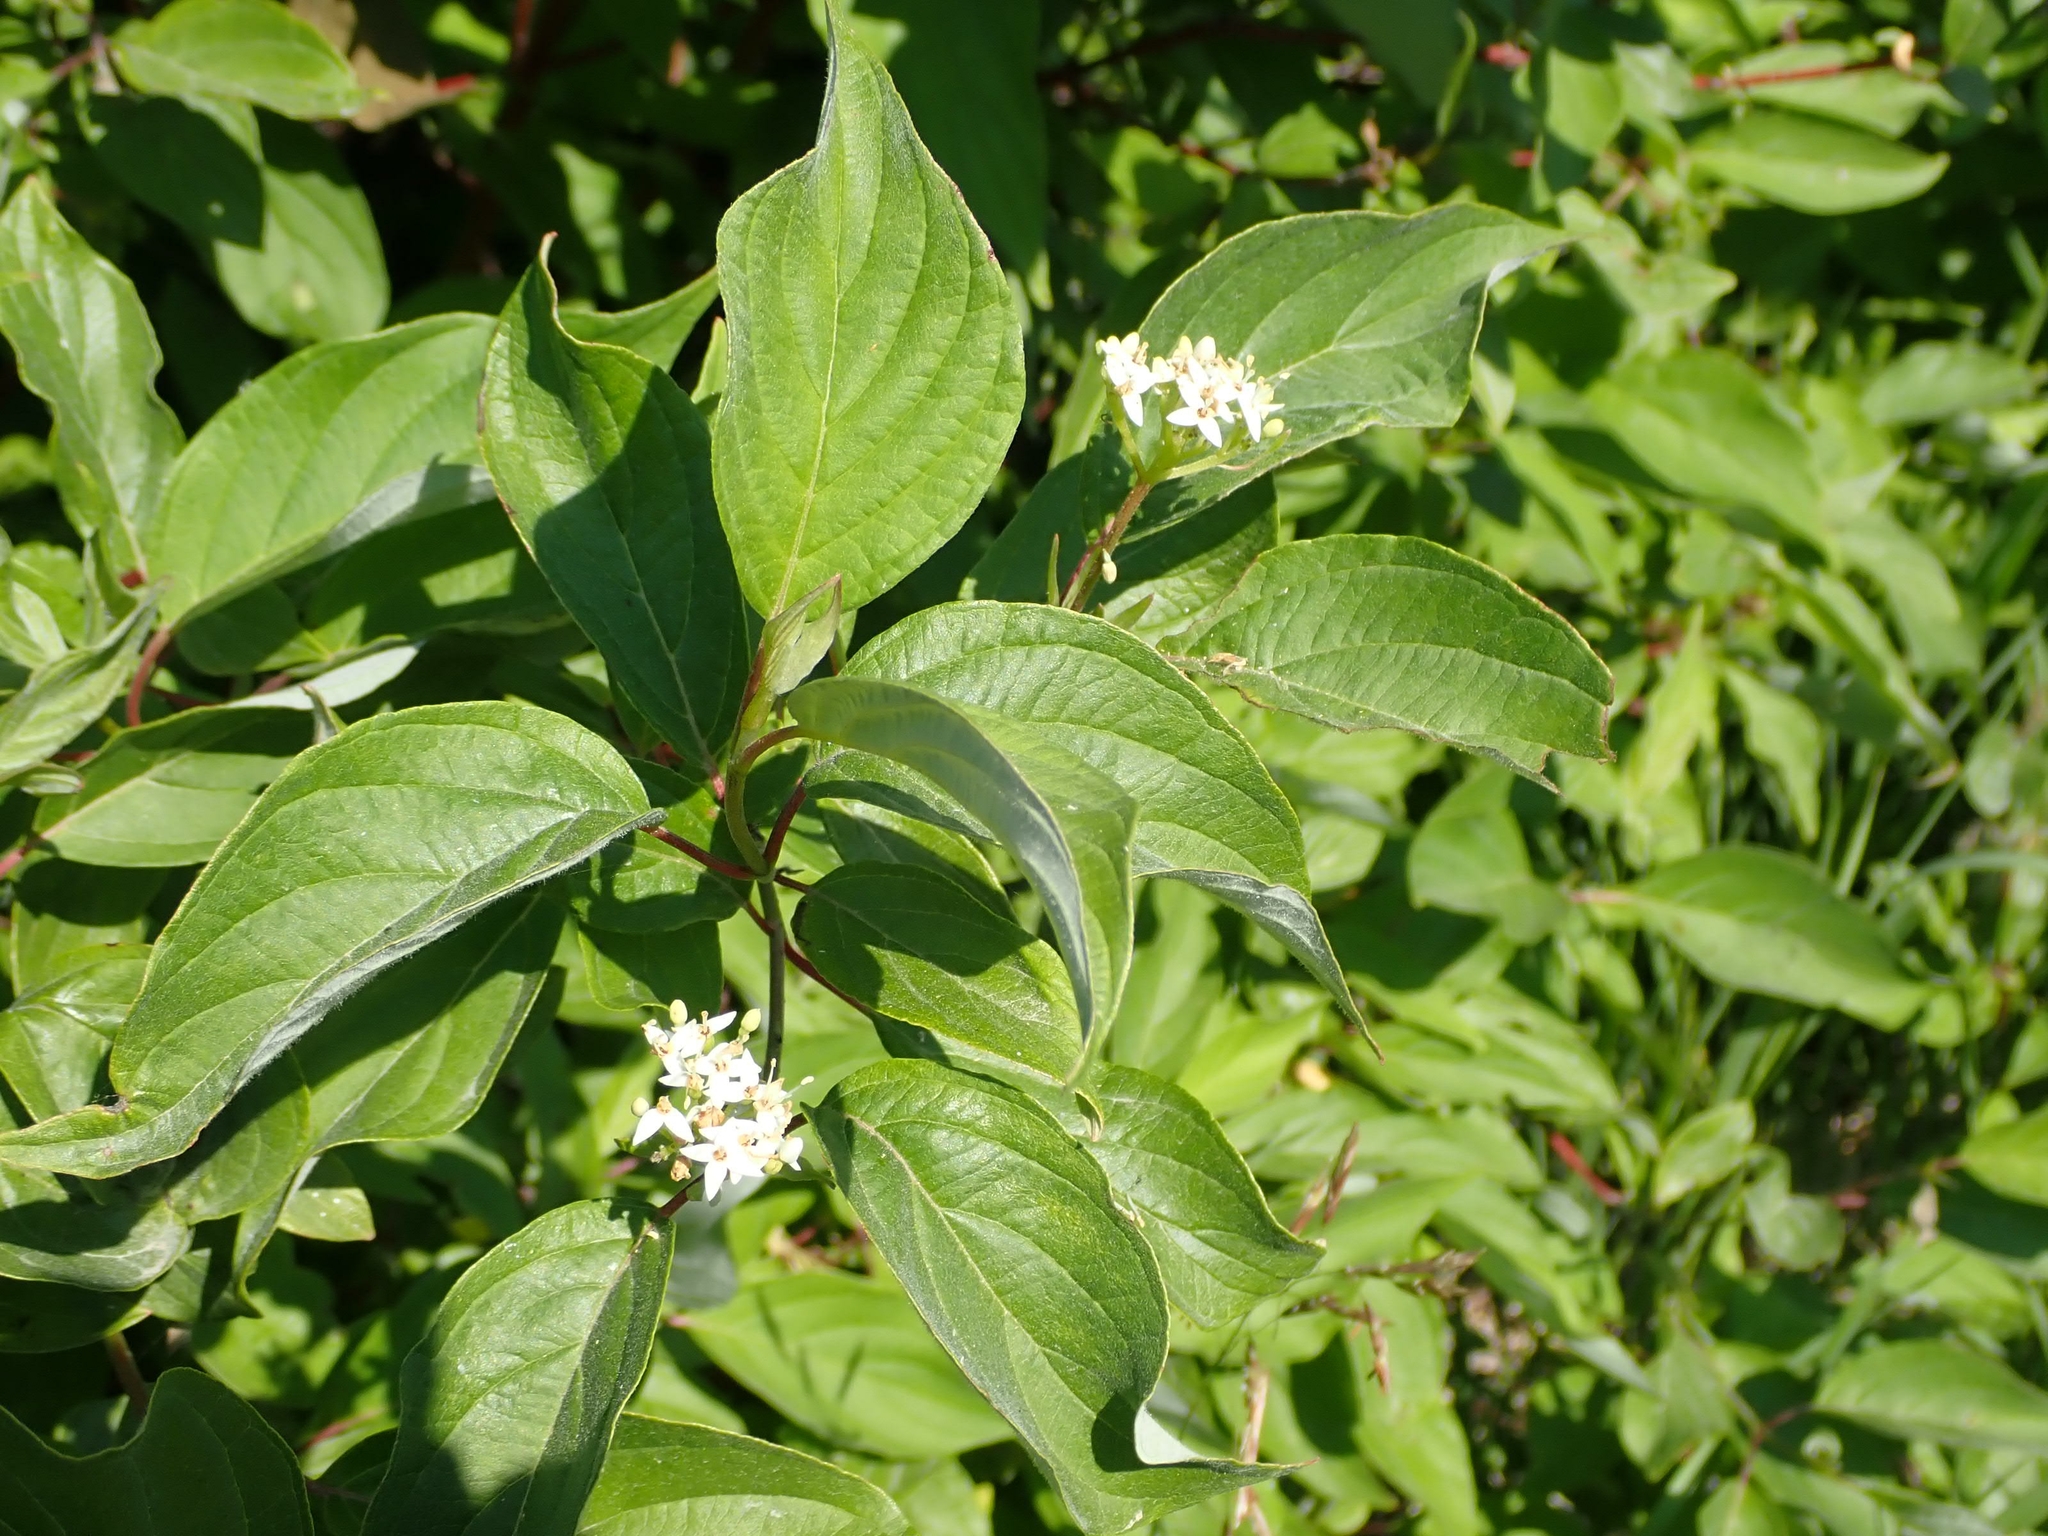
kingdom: Plantae
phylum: Tracheophyta
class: Magnoliopsida
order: Cornales
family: Cornaceae
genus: Cornus
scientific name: Cornus sericea
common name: Red-osier dogwood
